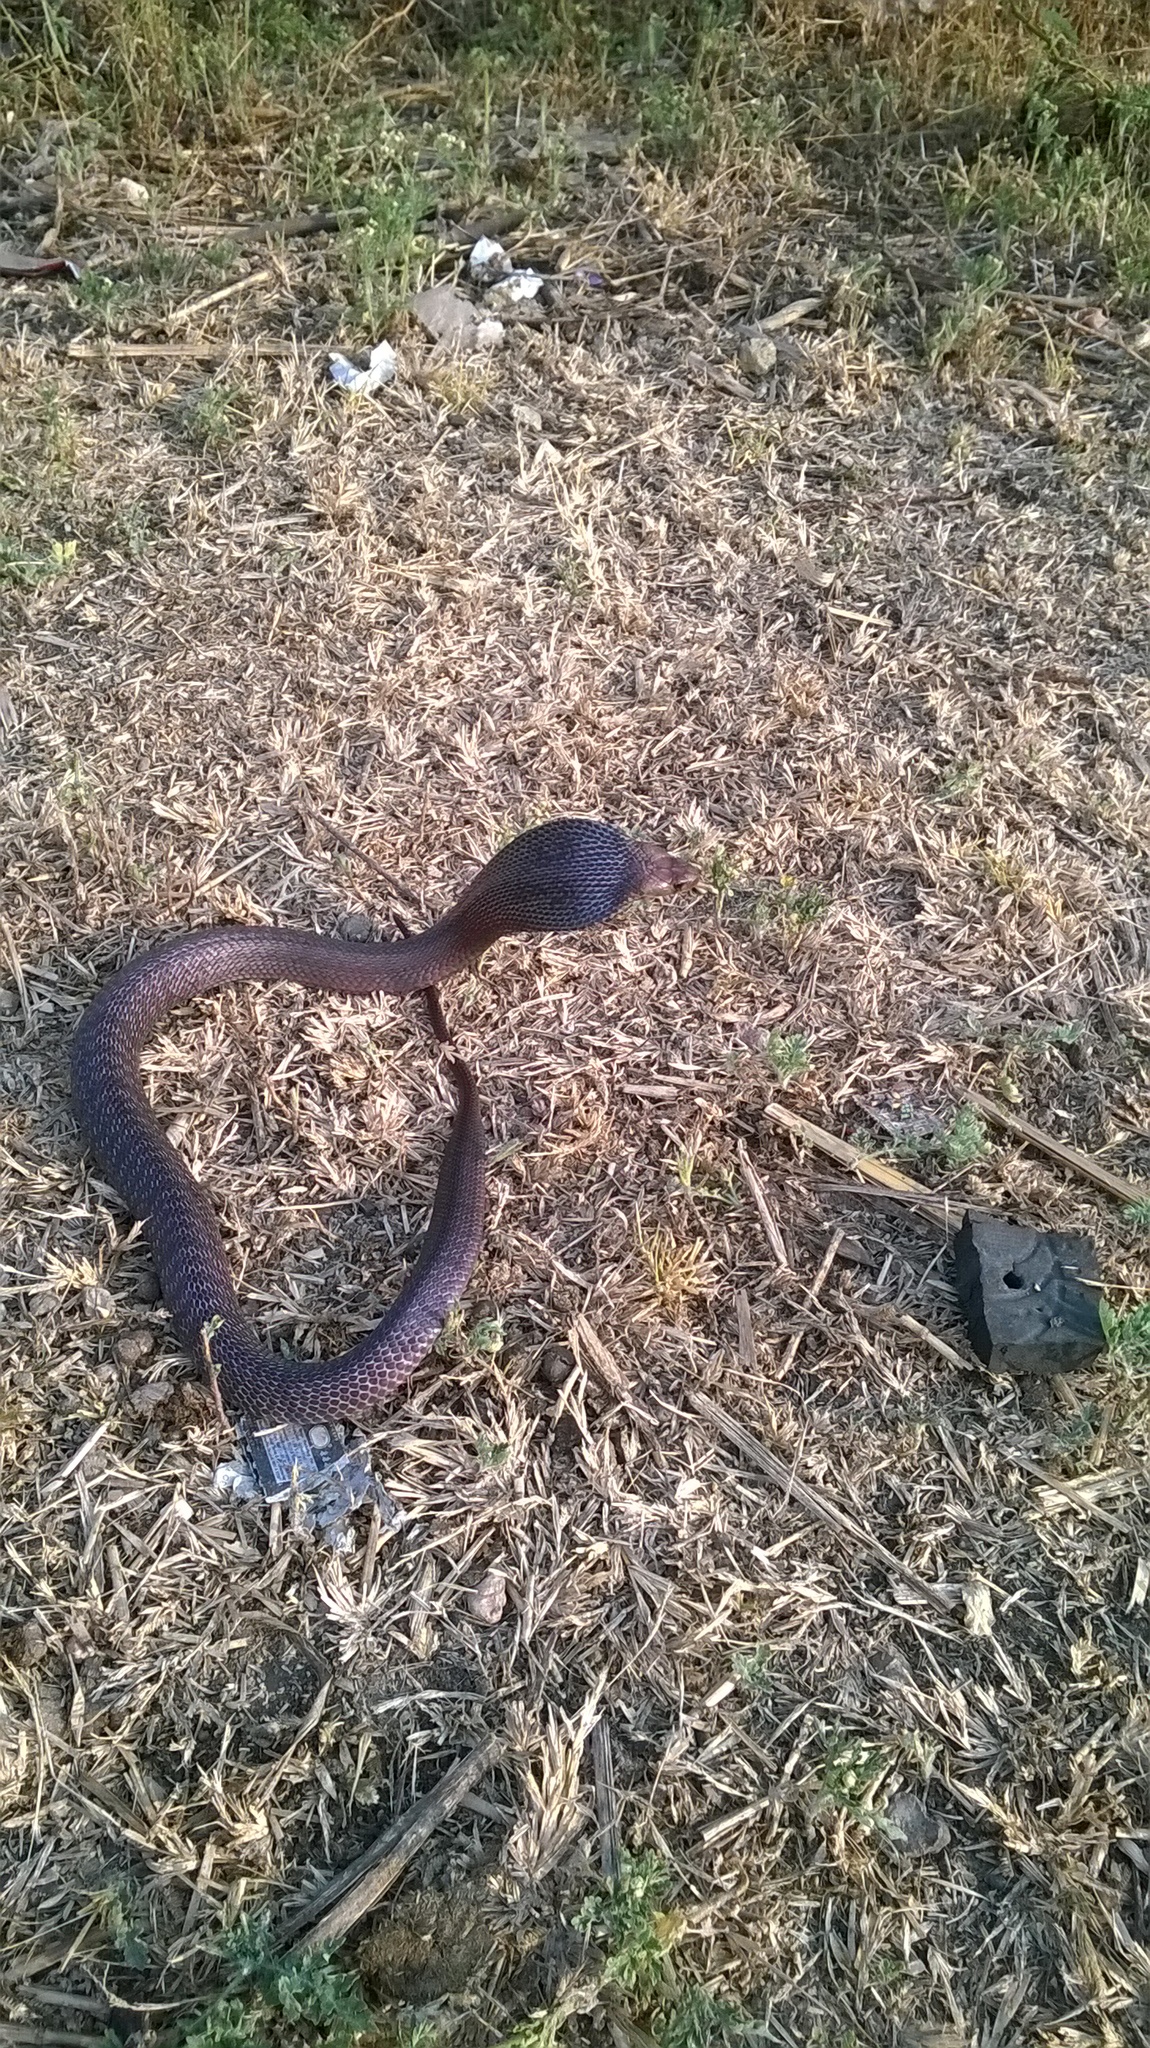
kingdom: Animalia
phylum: Chordata
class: Squamata
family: Elapidae
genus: Naja
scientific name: Naja naja
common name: Indian cobra
